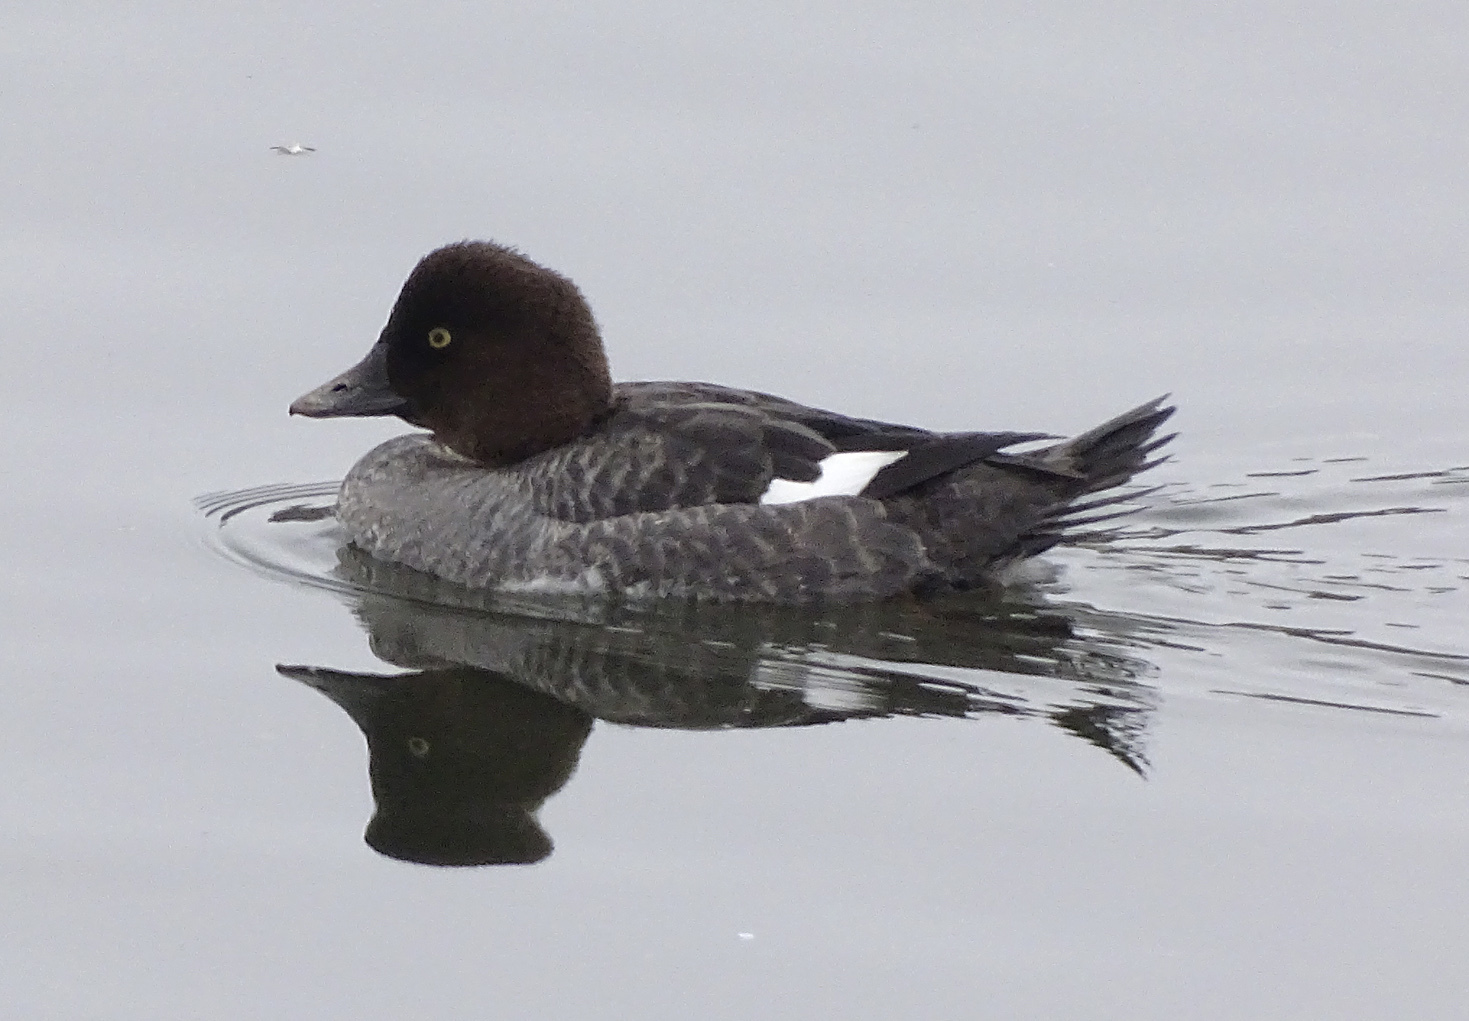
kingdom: Animalia
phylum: Chordata
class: Aves
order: Anseriformes
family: Anatidae
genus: Bucephala
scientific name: Bucephala clangula
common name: Common goldeneye
